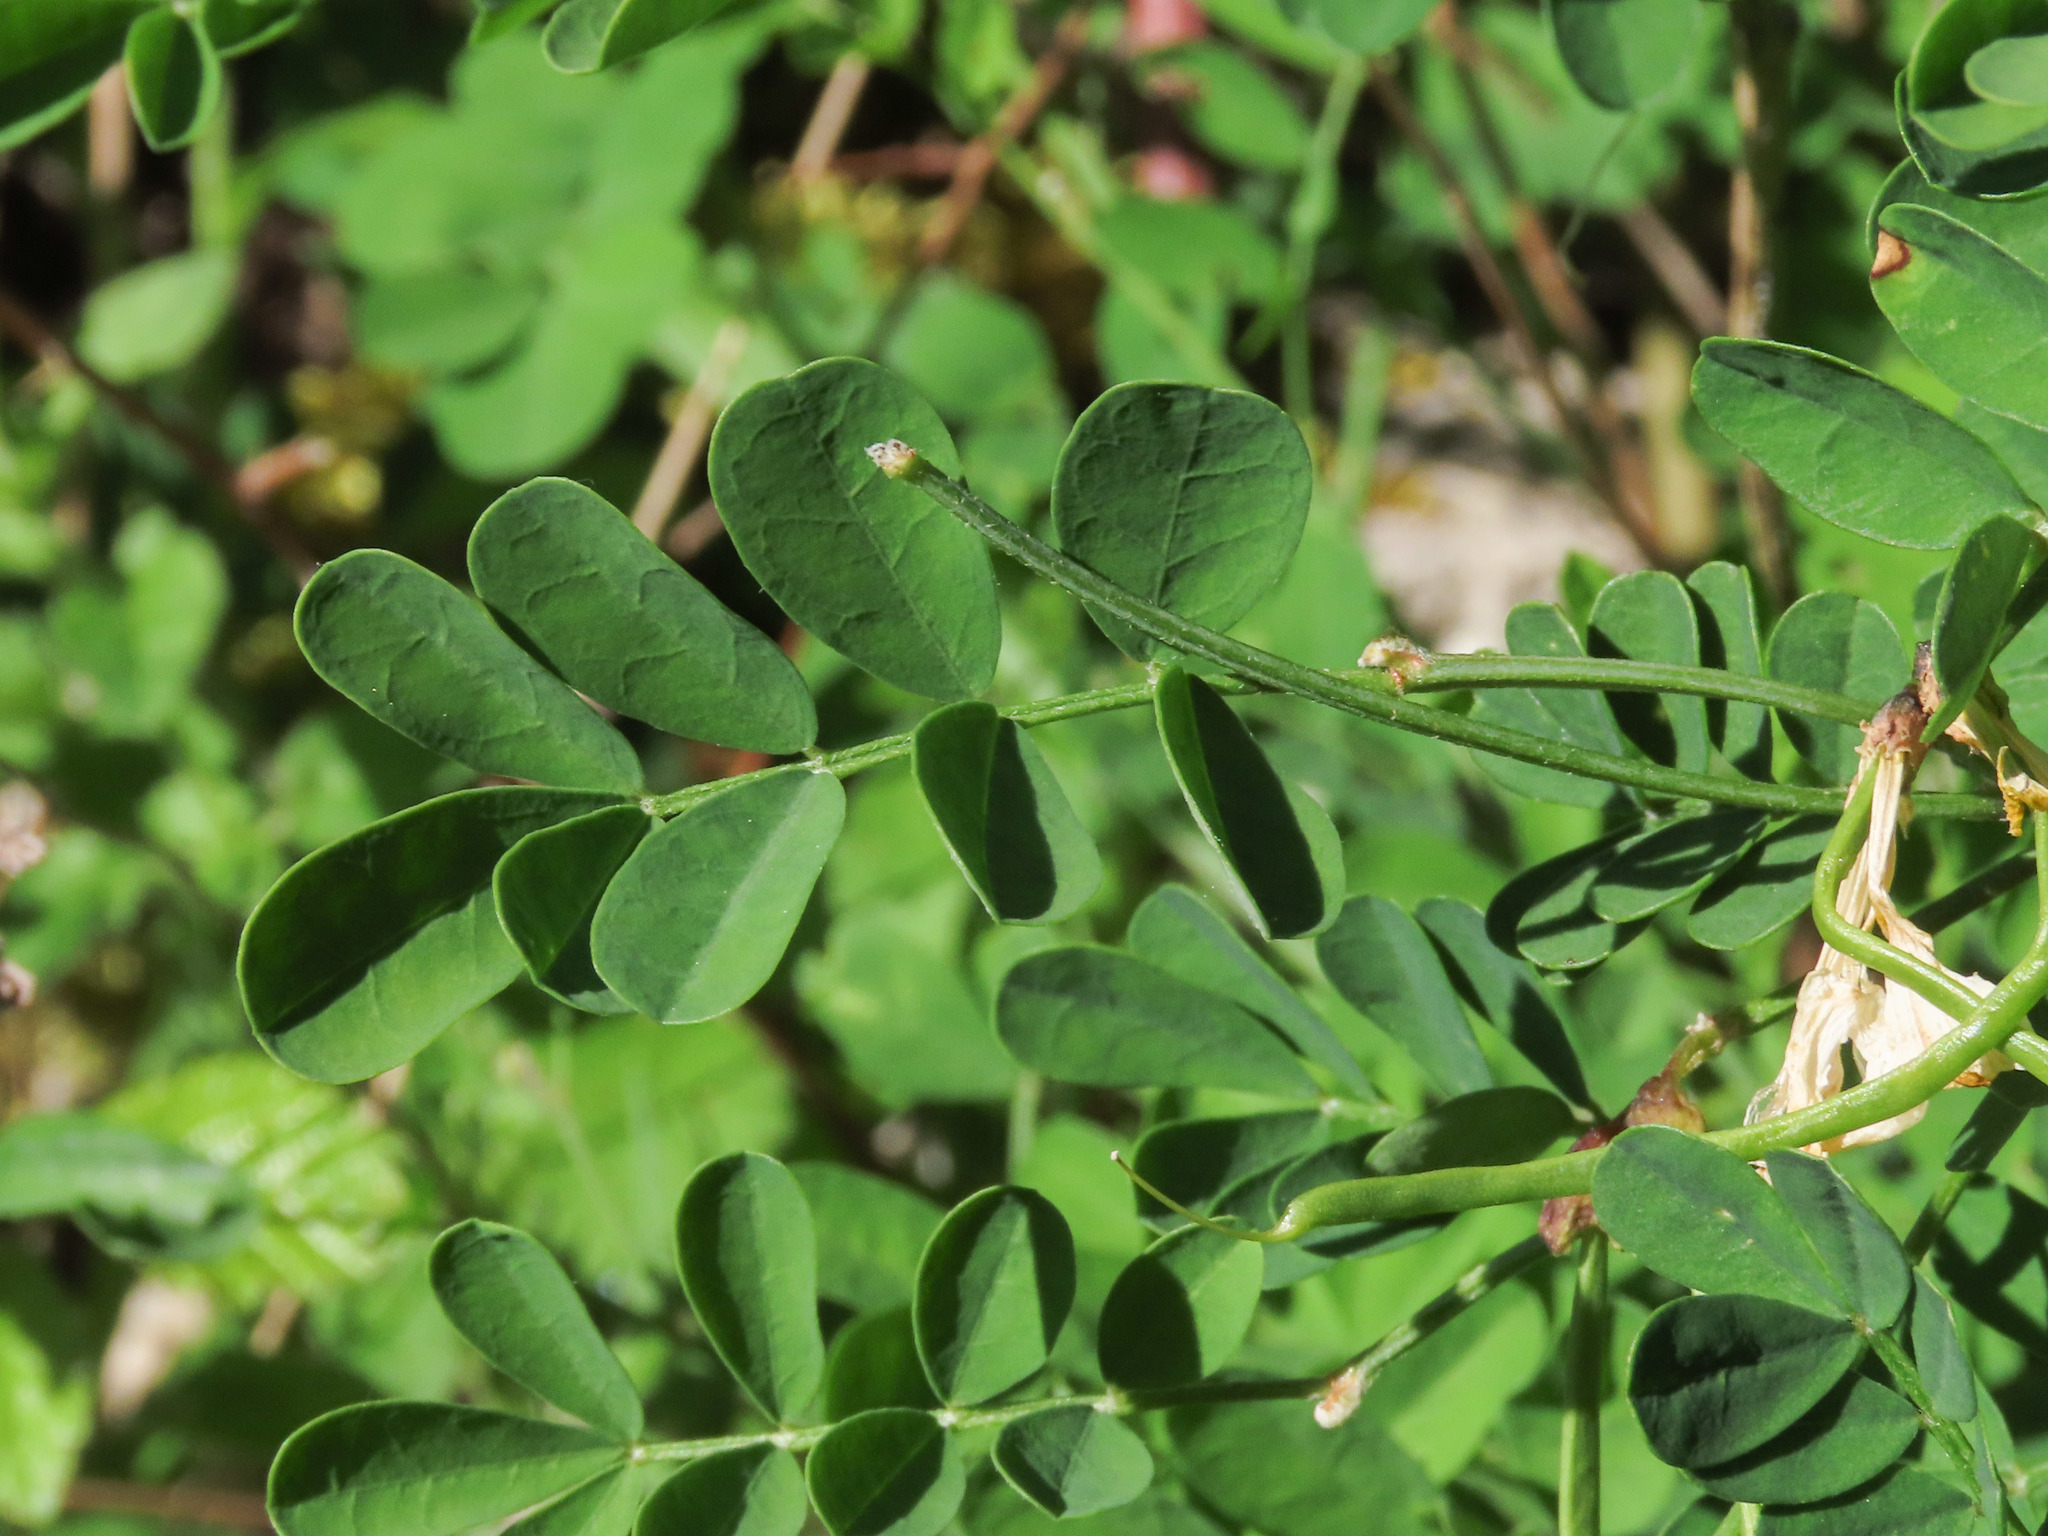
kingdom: Plantae
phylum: Tracheophyta
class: Magnoliopsida
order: Fabales
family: Fabaceae
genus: Hippocrepis
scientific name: Hippocrepis emerus
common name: Scorpion senna
